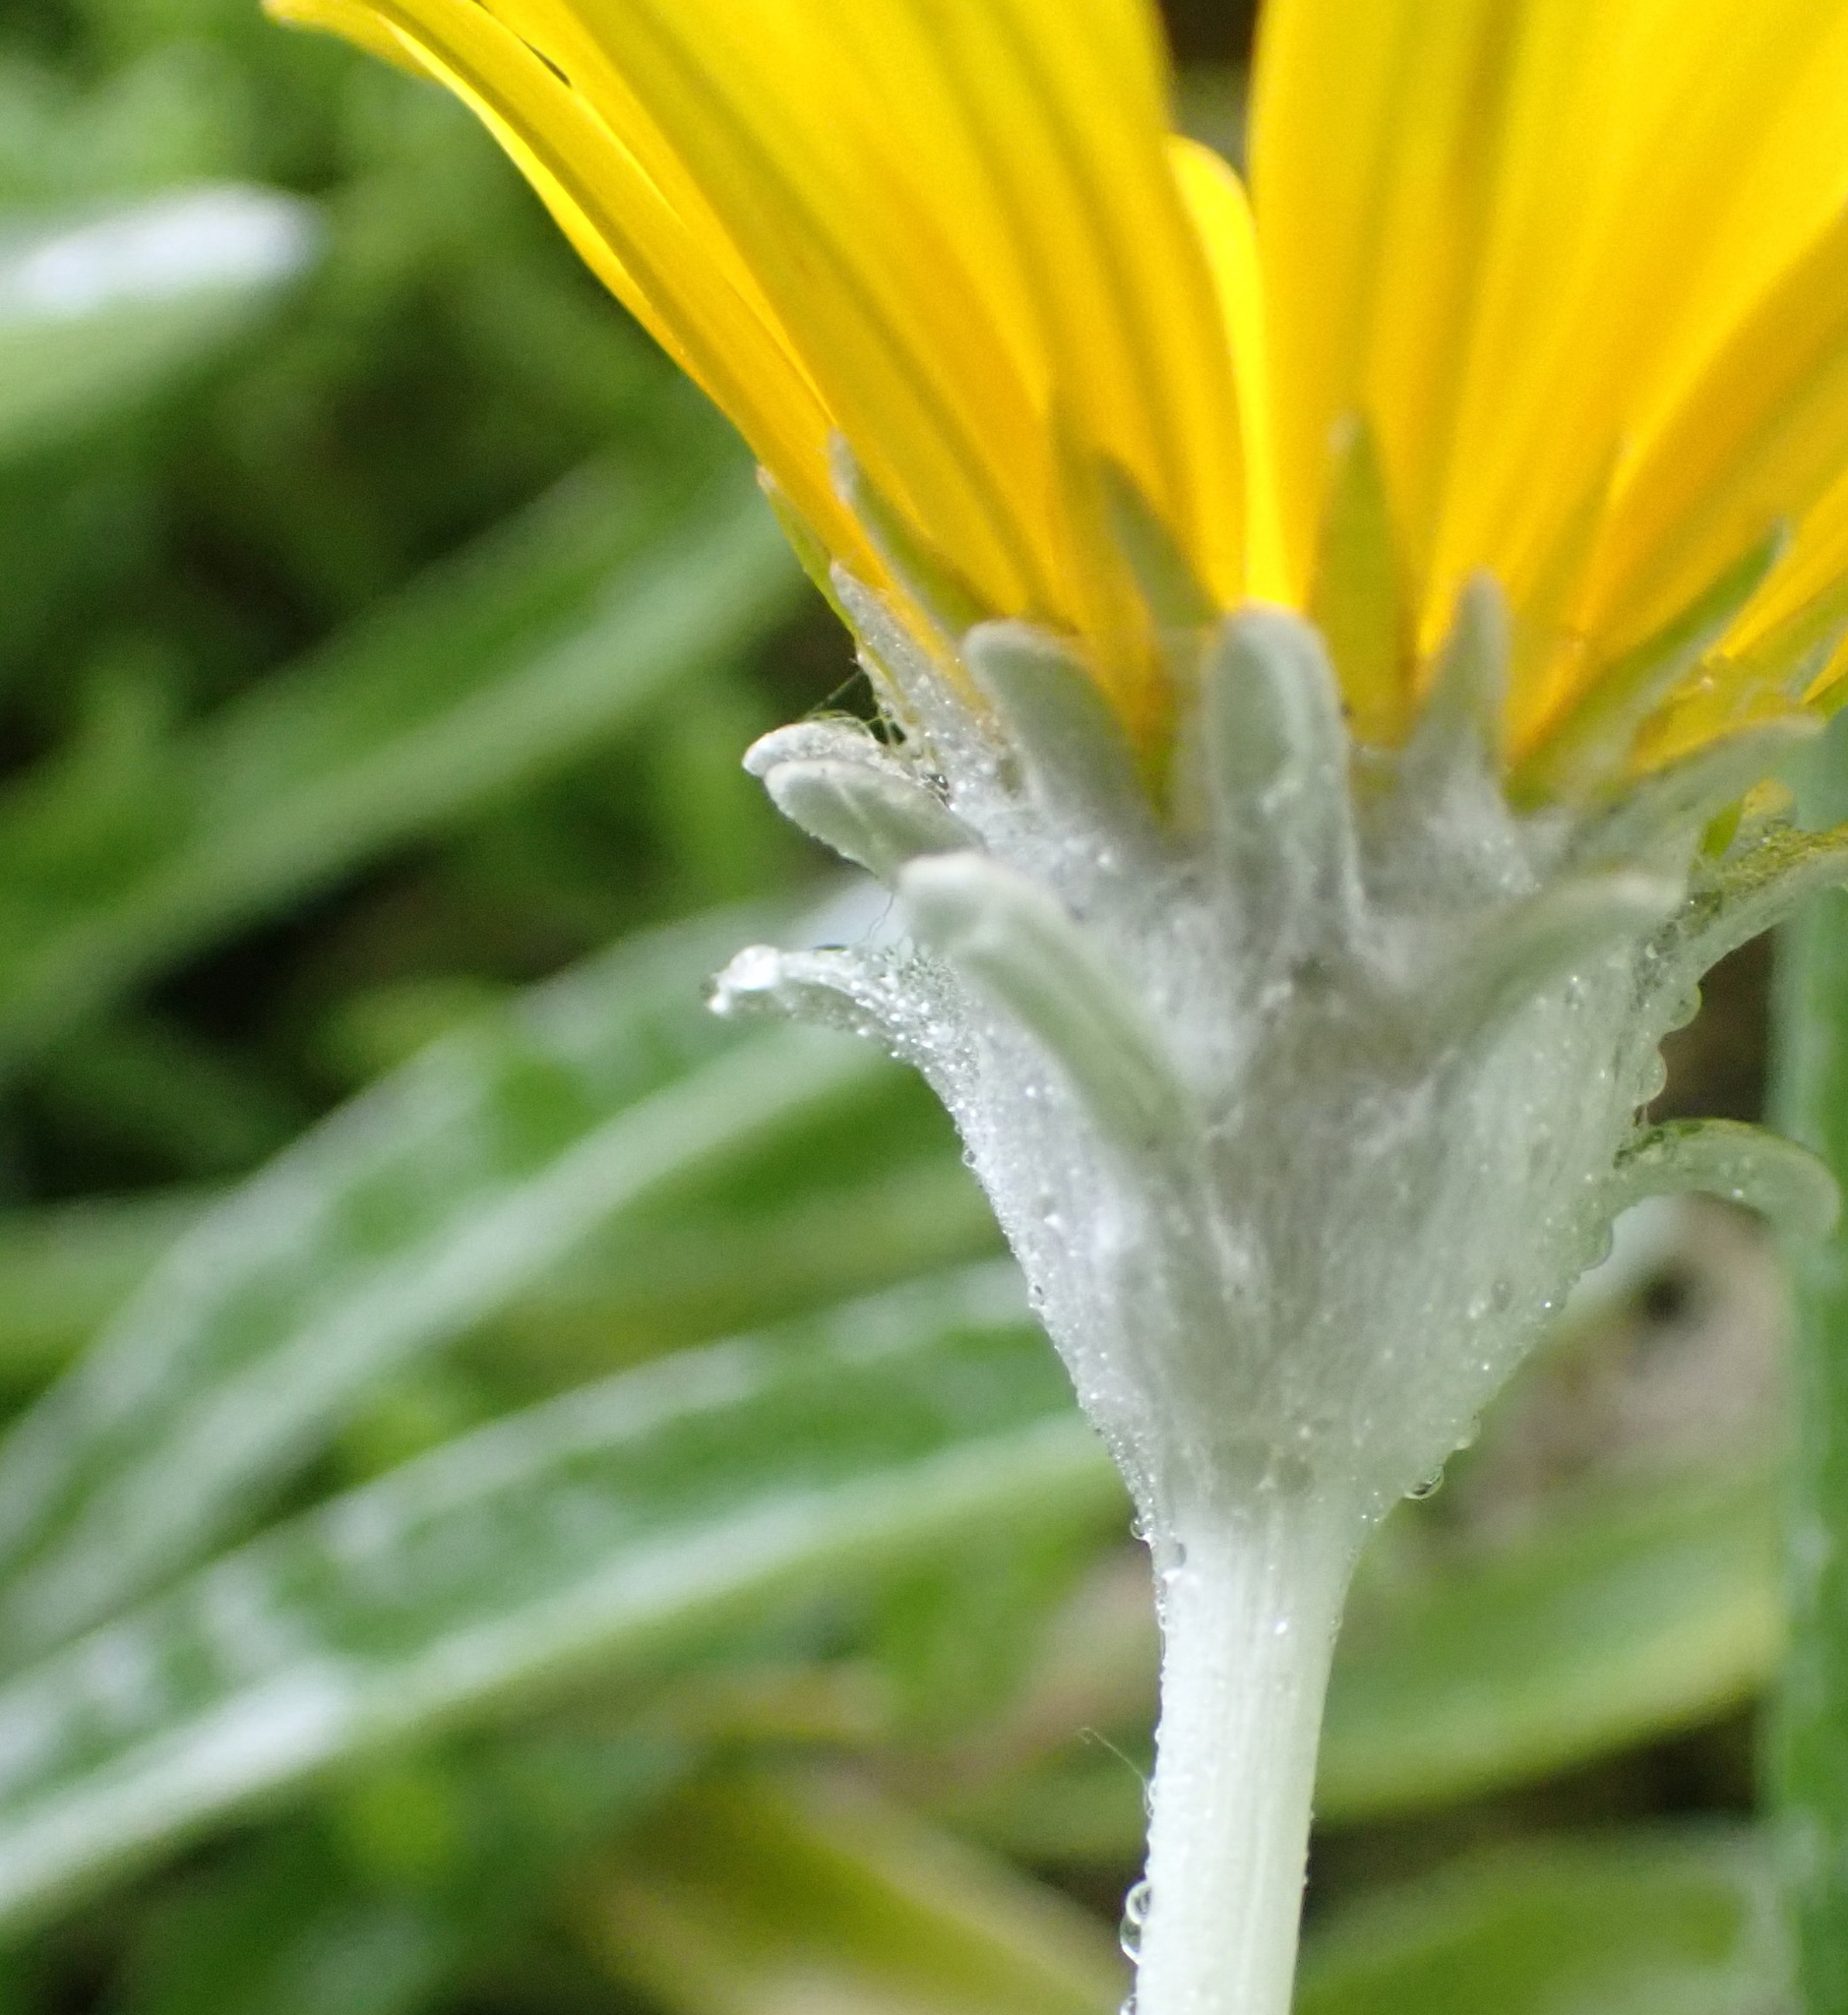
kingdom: Plantae
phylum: Tracheophyta
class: Magnoliopsida
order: Asterales
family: Asteraceae
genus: Gazania
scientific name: Gazania rigens
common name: Treasureflower
